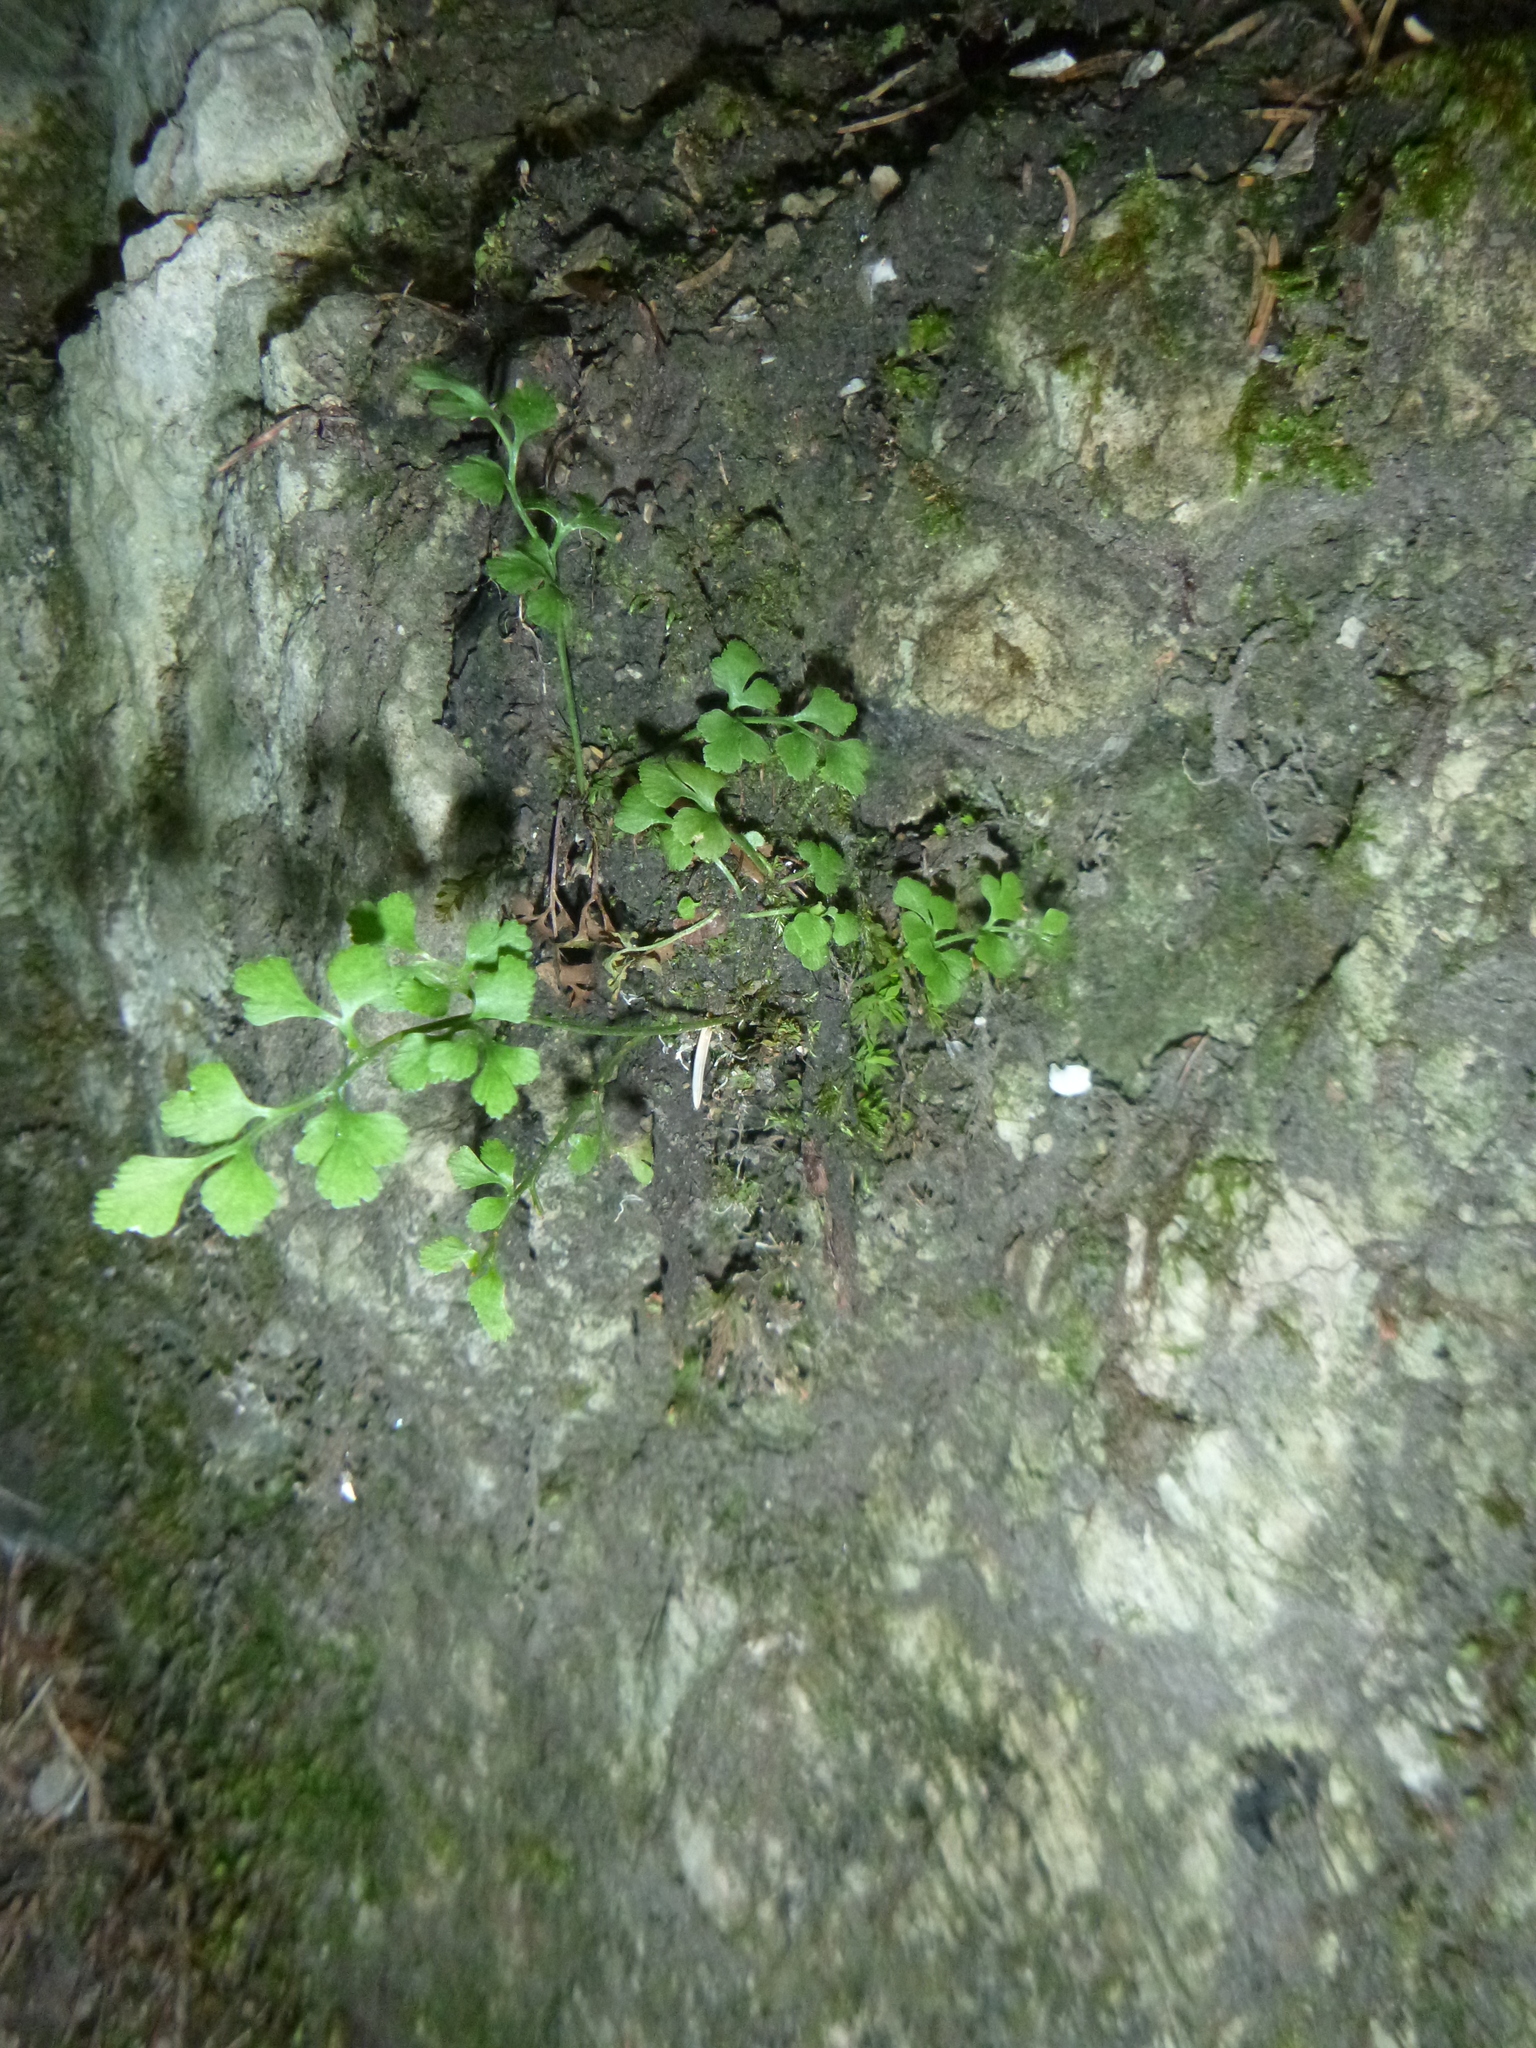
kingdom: Plantae
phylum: Tracheophyta
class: Polypodiopsida
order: Polypodiales
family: Aspleniaceae
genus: Asplenium
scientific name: Asplenium ruta-muraria
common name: Wall-rue
